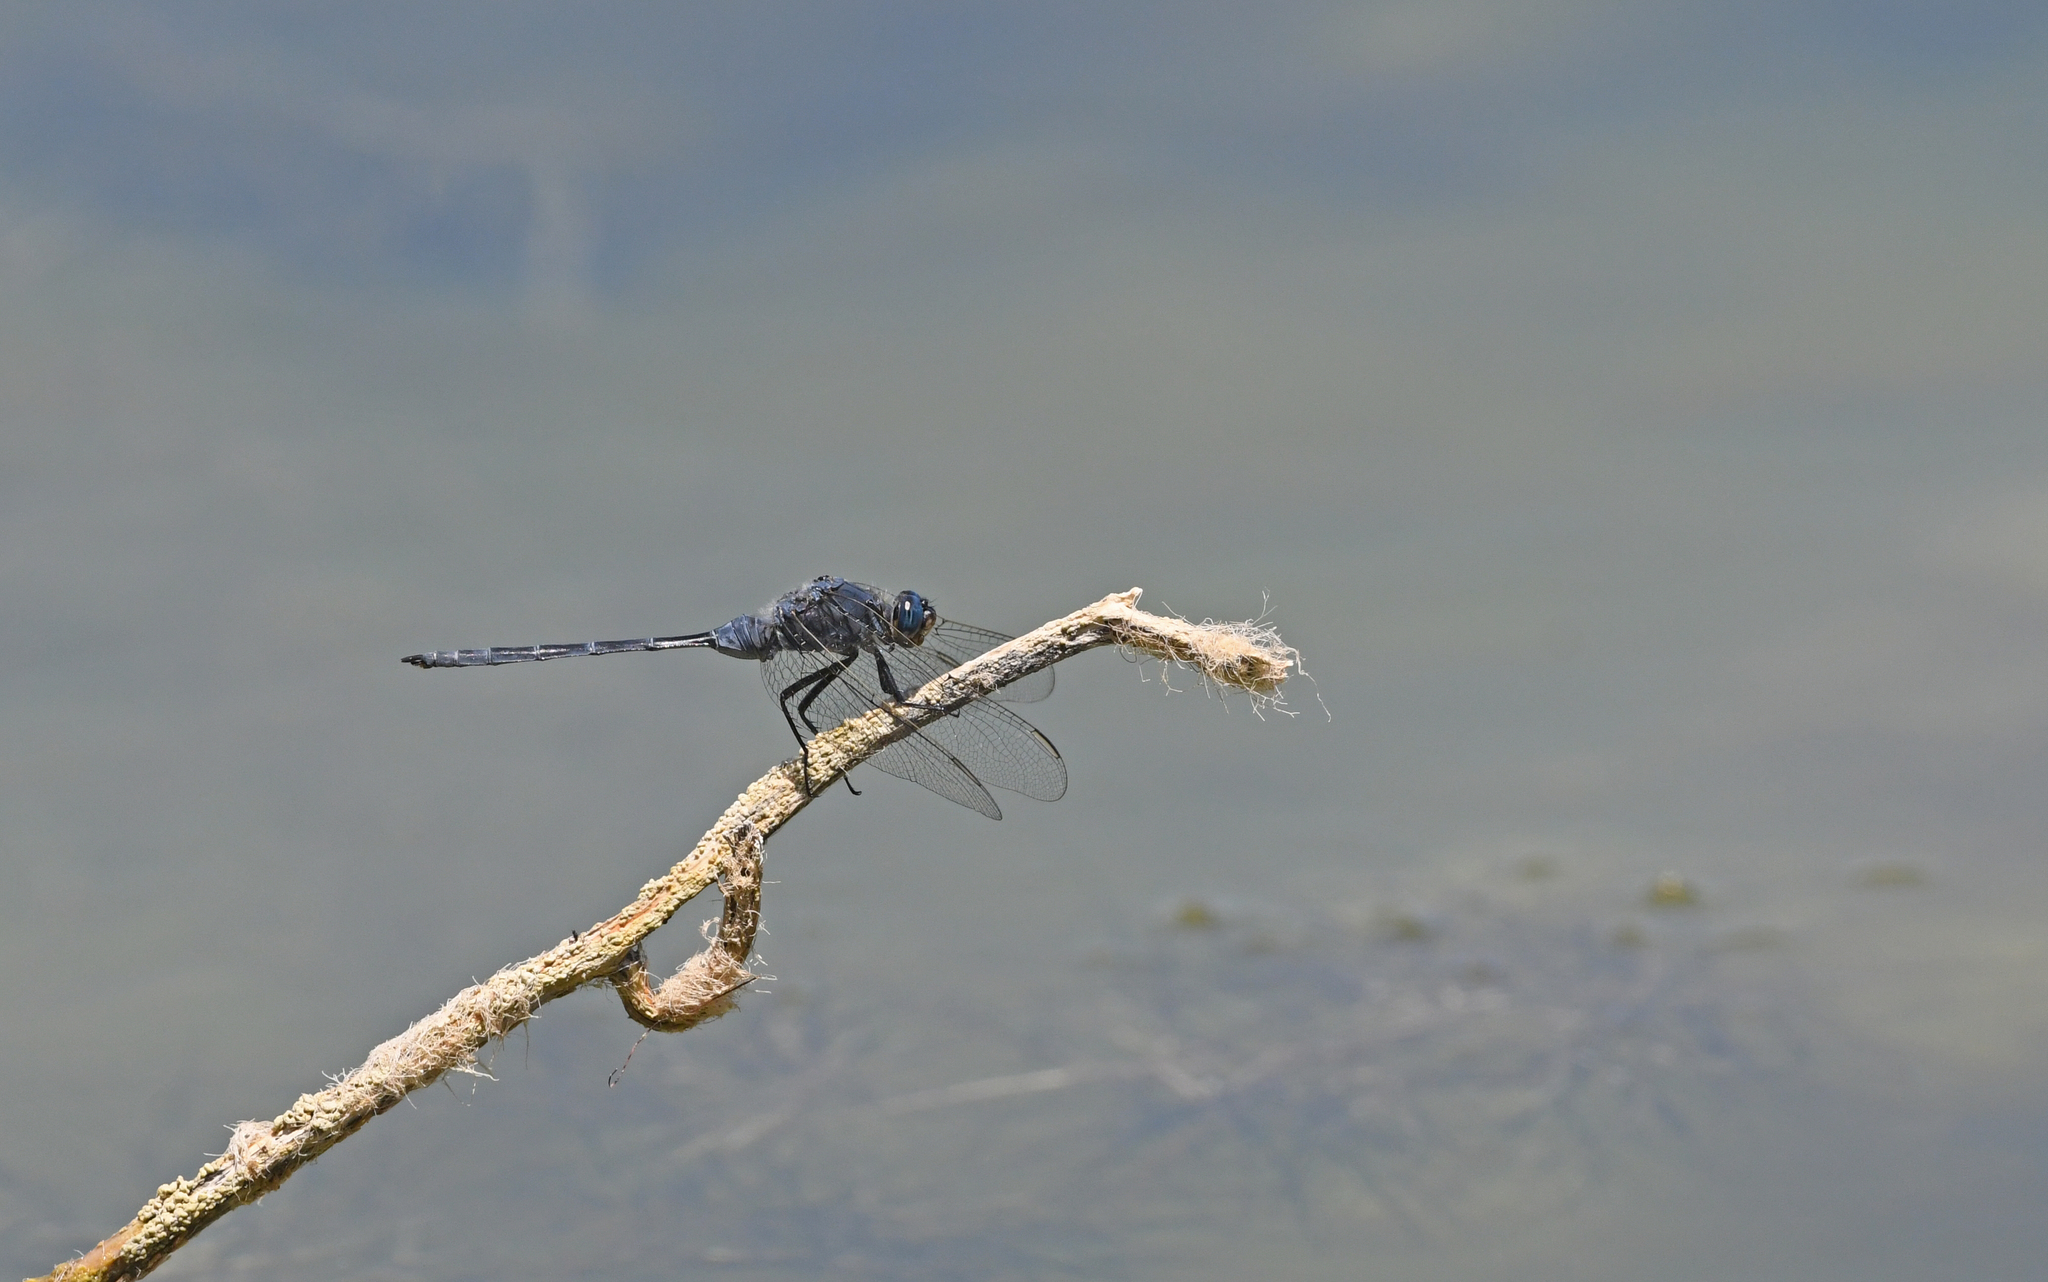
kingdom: Animalia
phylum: Arthropoda
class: Insecta
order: Odonata
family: Libellulidae
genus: Orthetrum
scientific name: Orthetrum trinacria
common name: Long skimmer
